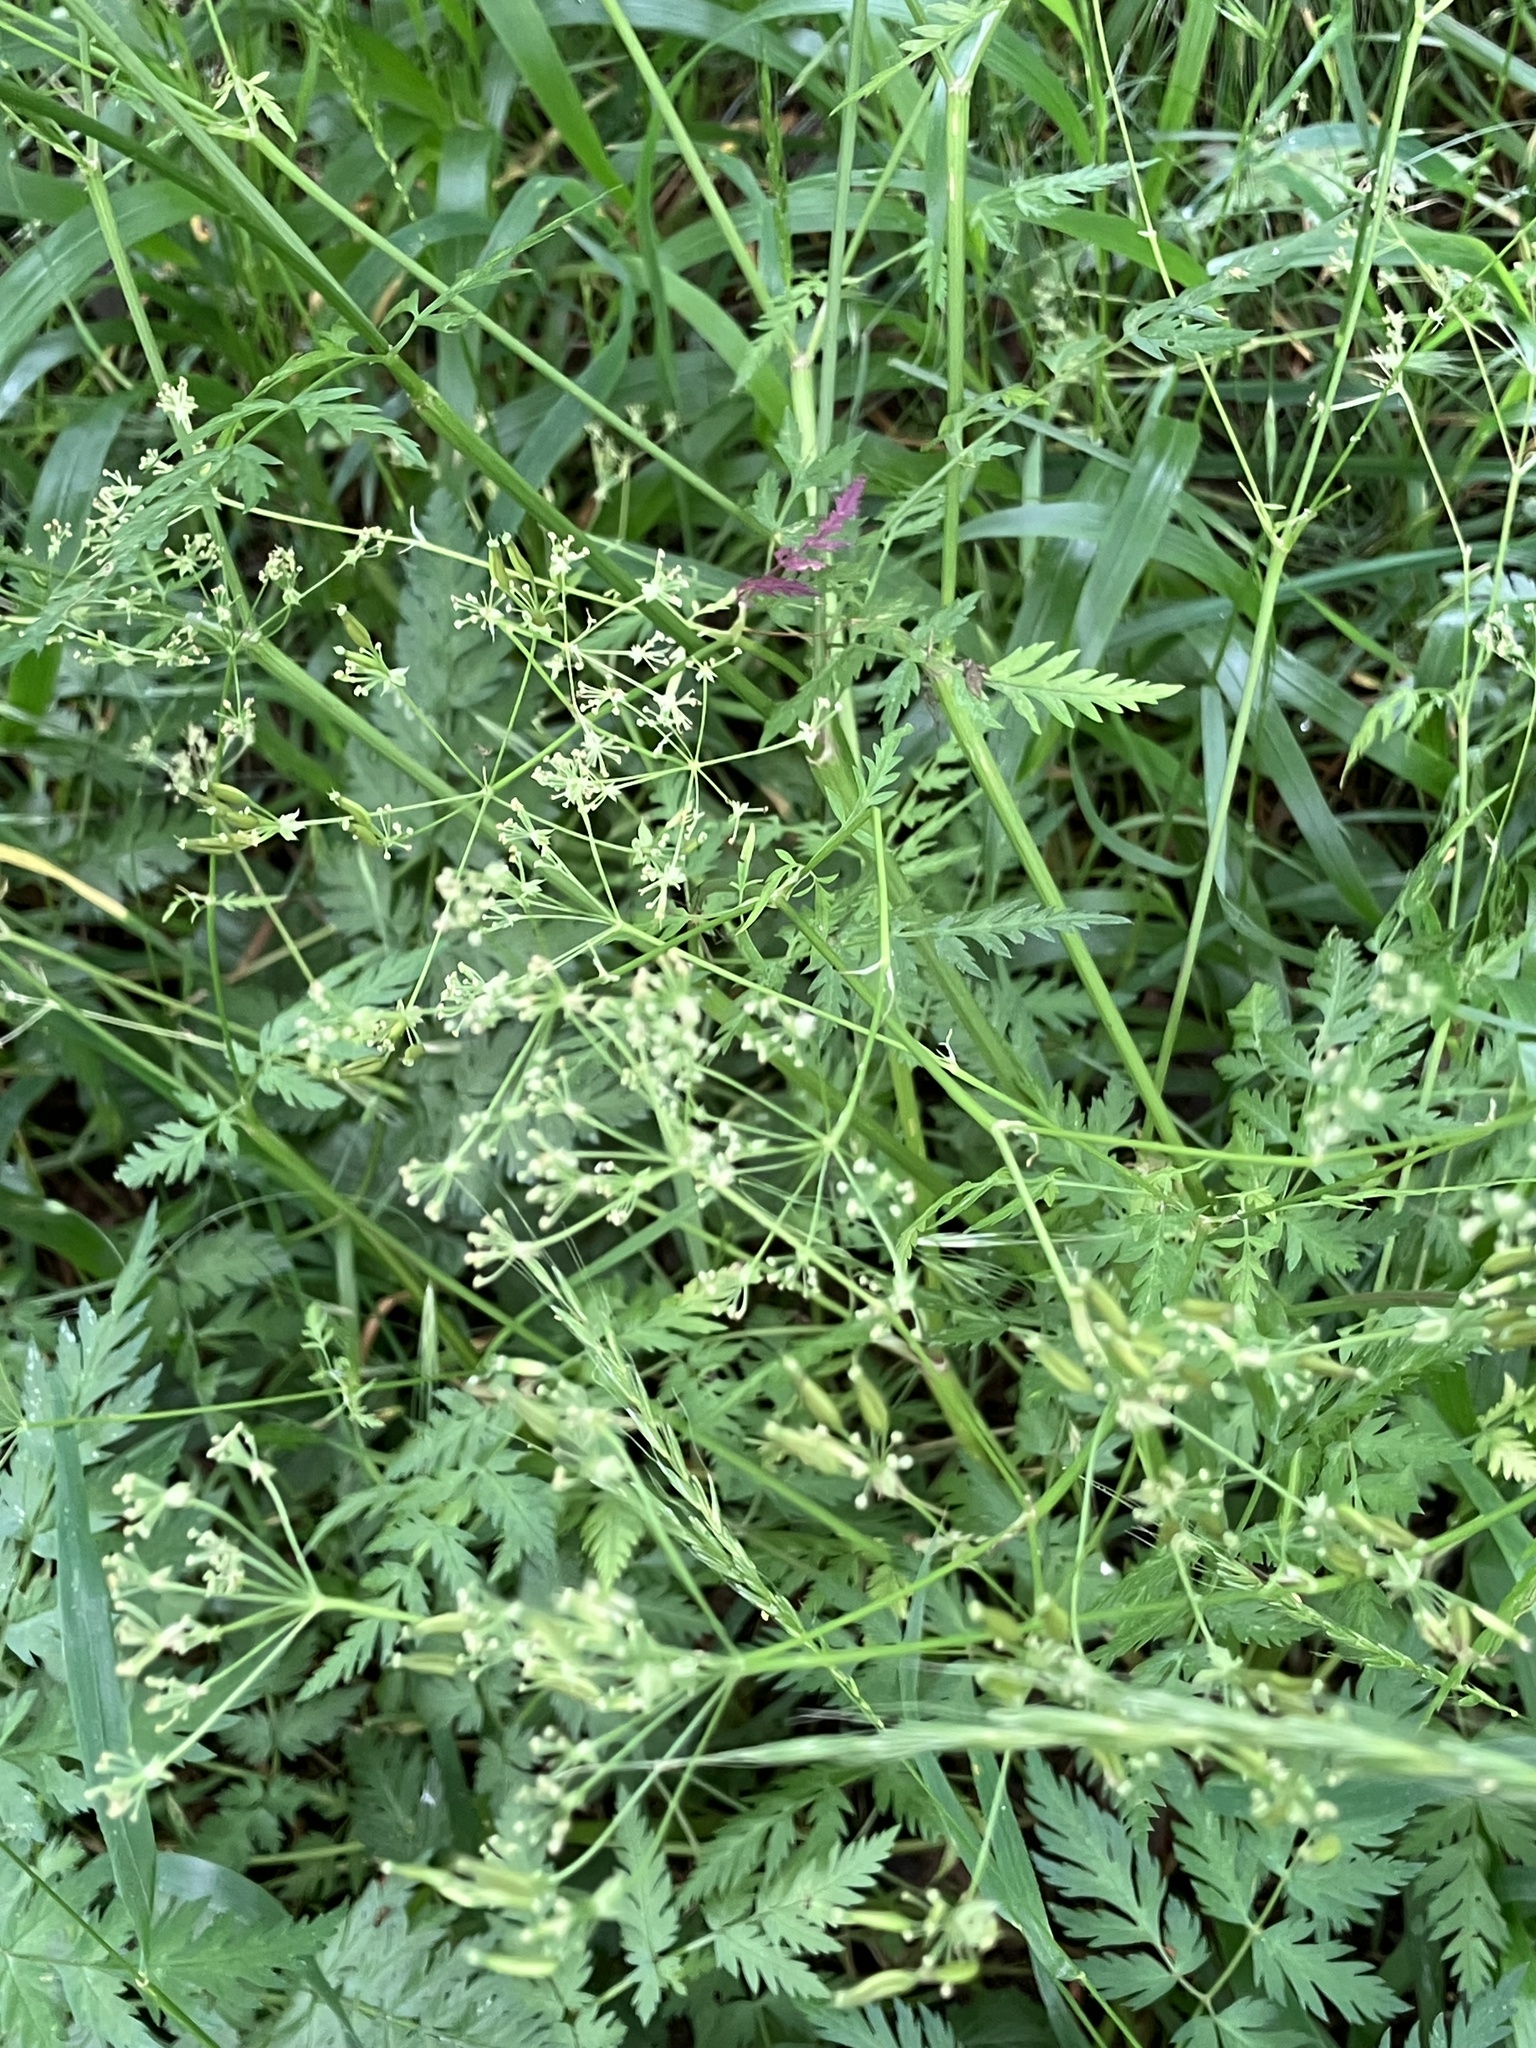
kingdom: Plantae
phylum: Tracheophyta
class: Magnoliopsida
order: Apiales
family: Apiaceae
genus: Anthriscus
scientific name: Anthriscus sylvestris
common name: Cow parsley
